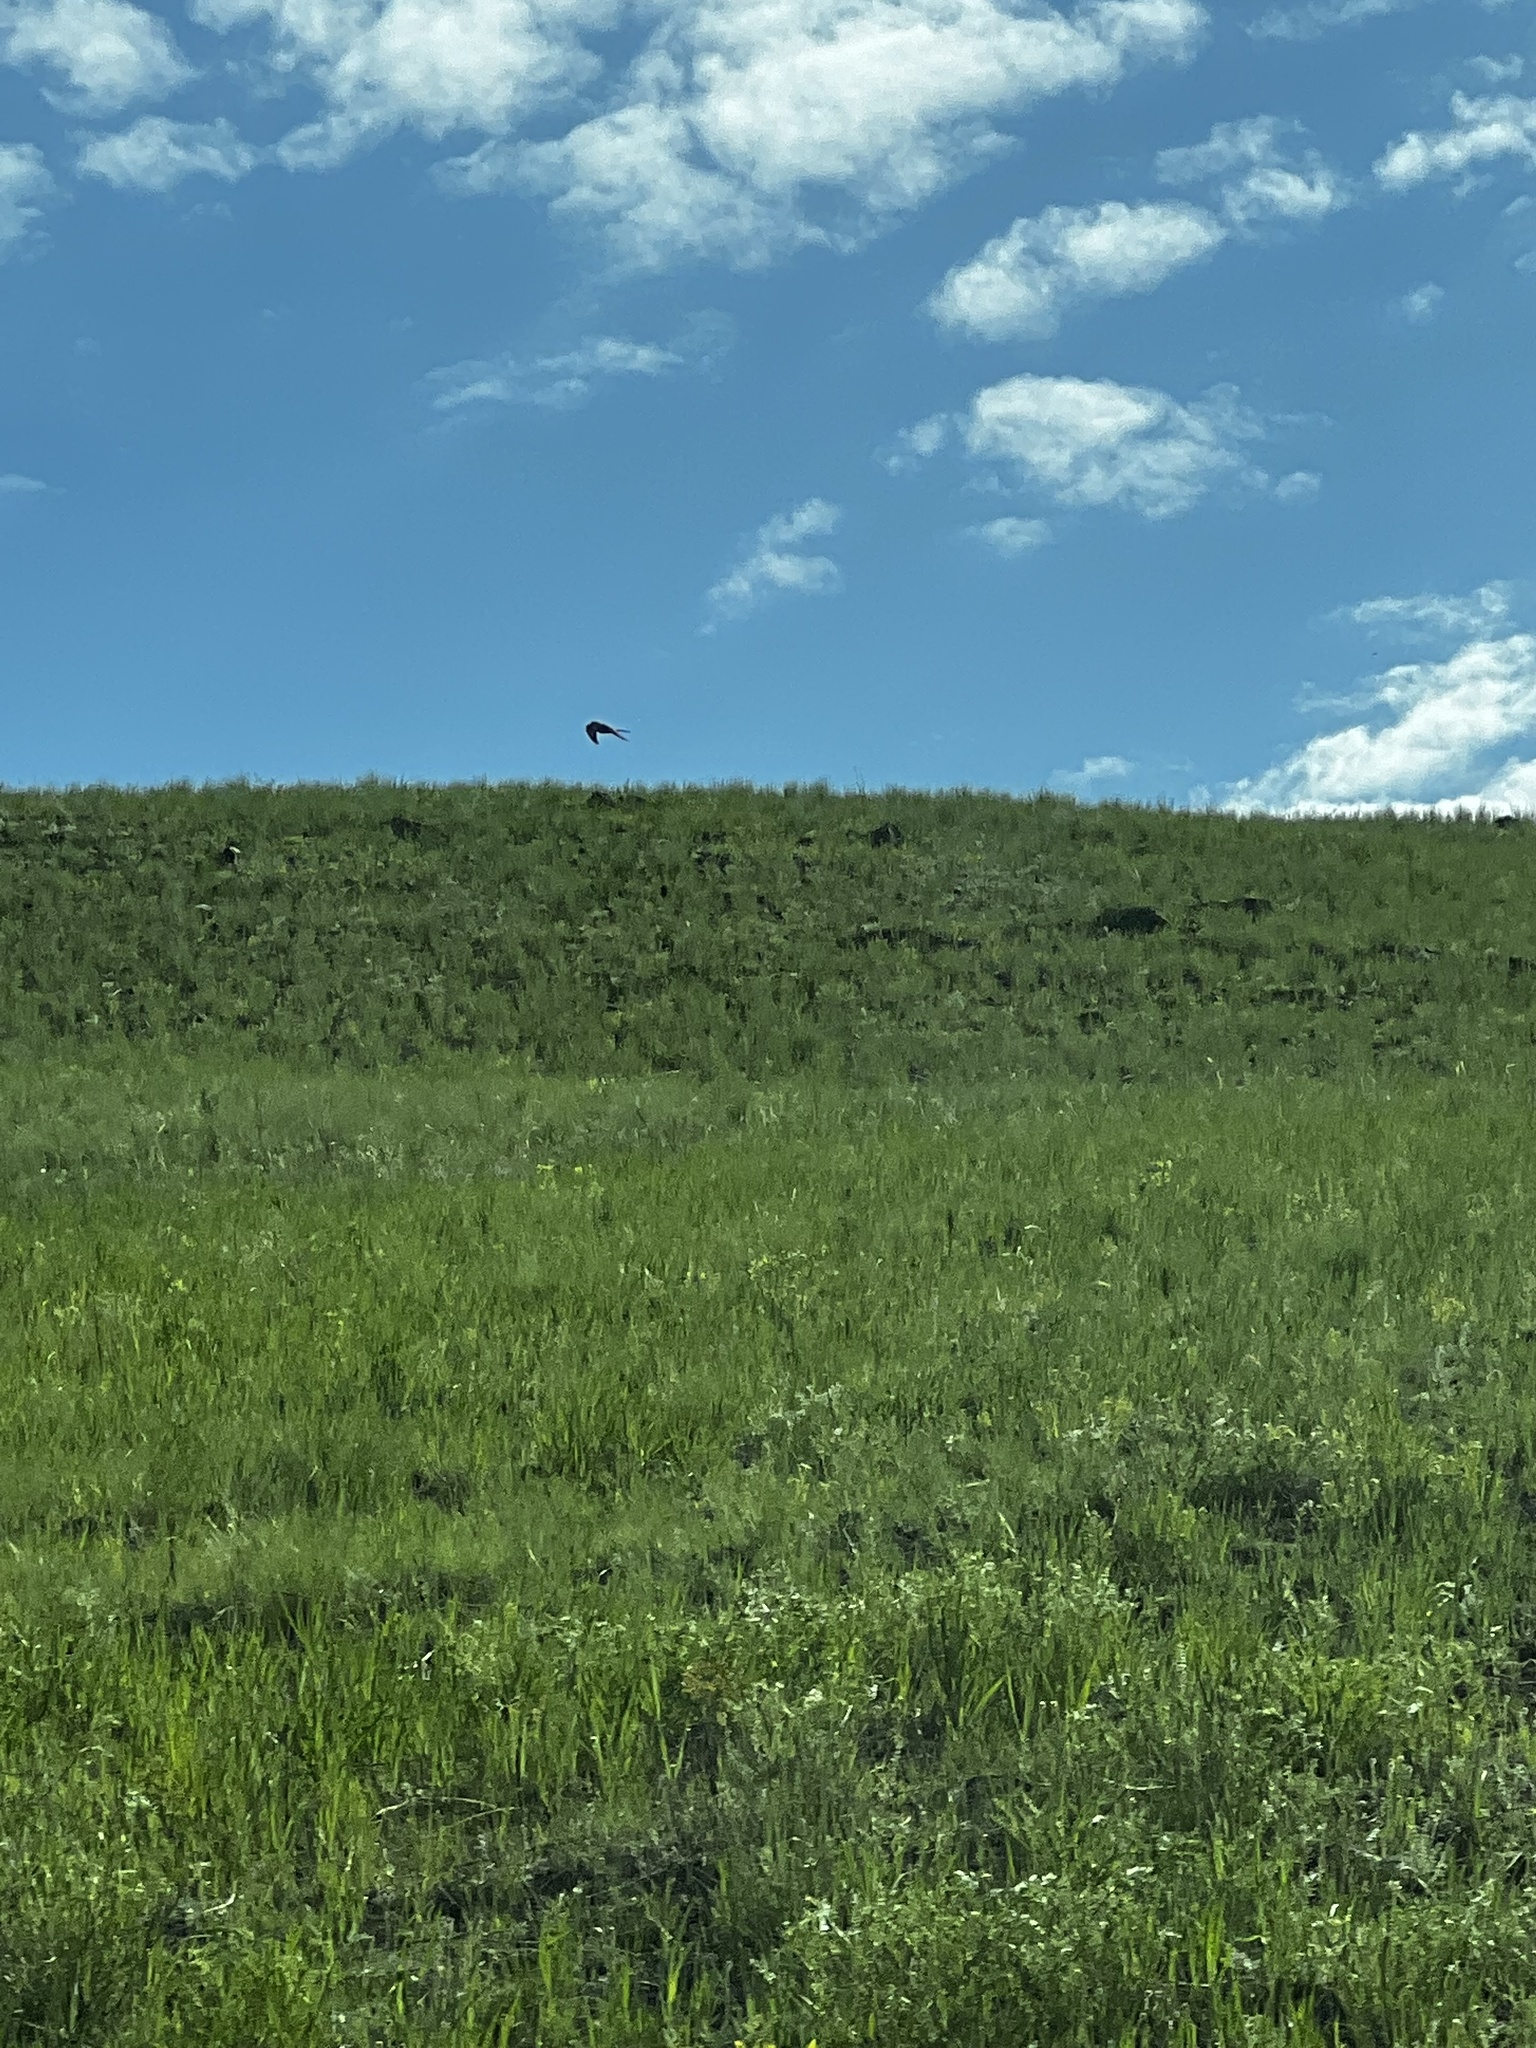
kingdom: Animalia
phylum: Chordata
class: Aves
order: Falconiformes
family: Falconidae
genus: Falco
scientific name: Falco sparverius
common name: American kestrel
